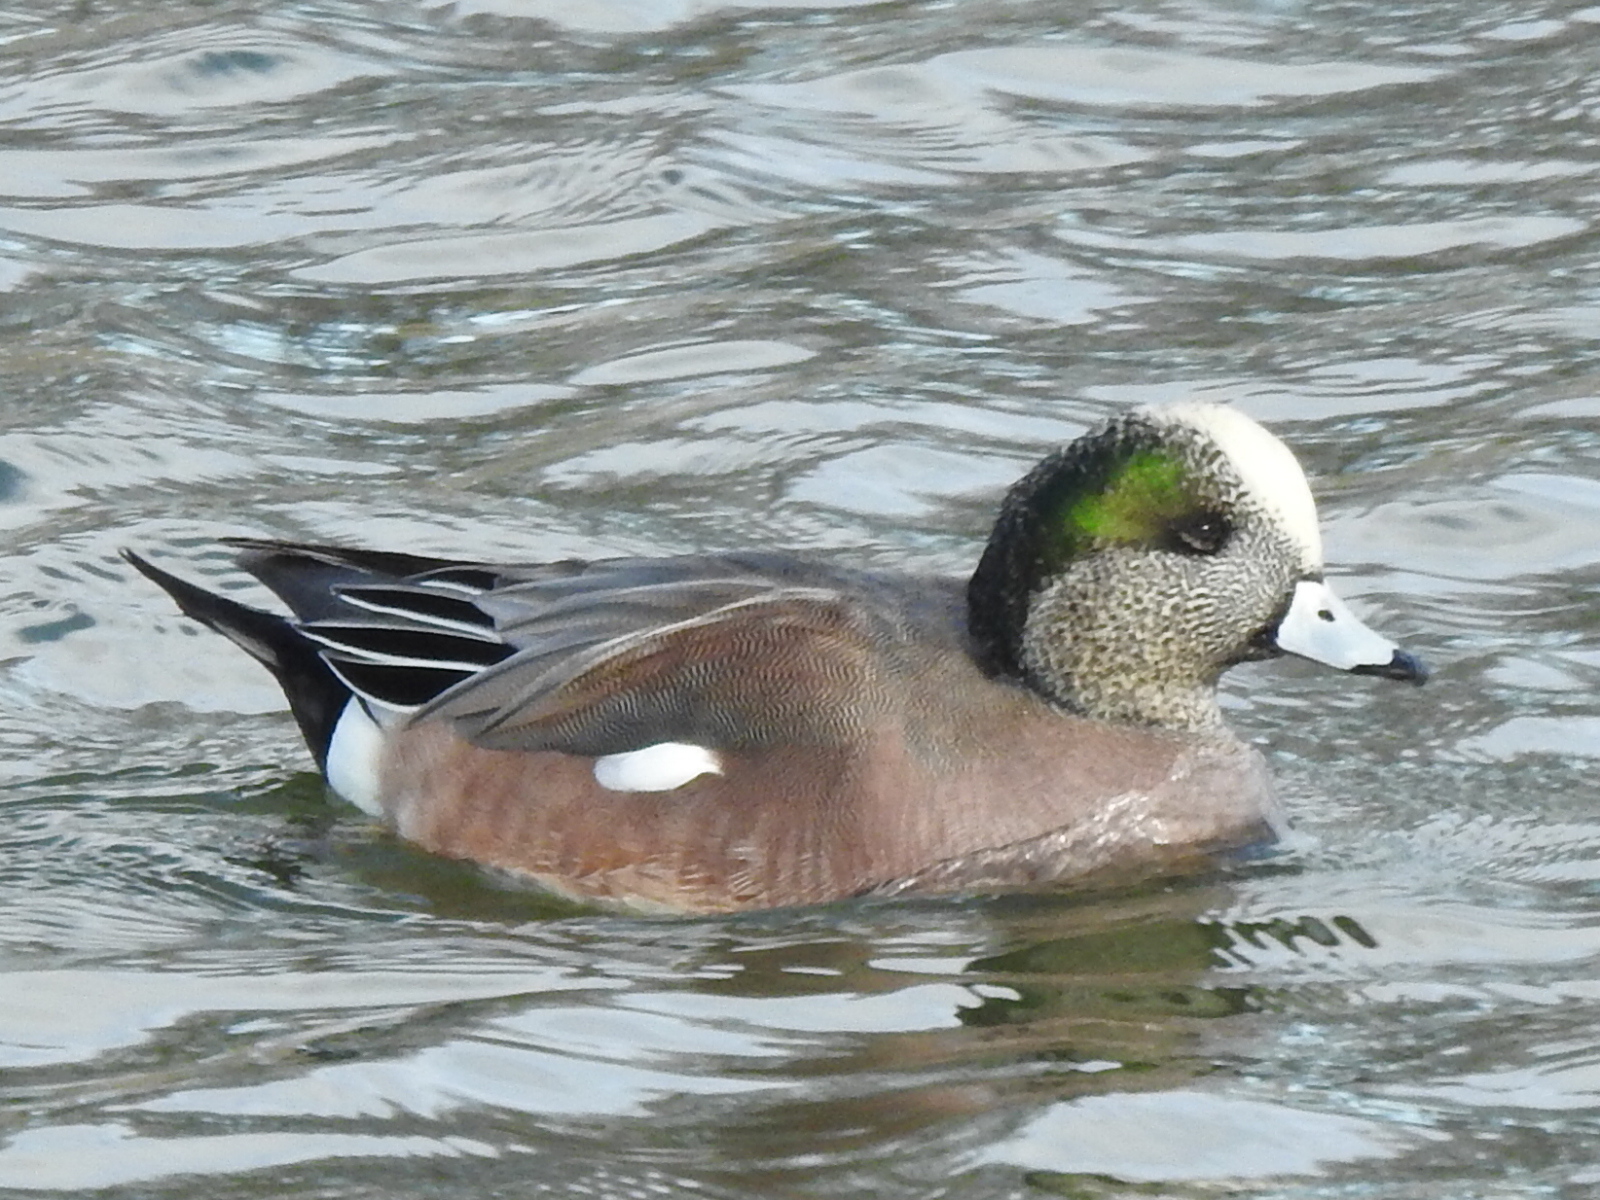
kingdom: Animalia
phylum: Chordata
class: Aves
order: Anseriformes
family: Anatidae
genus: Mareca
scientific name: Mareca americana
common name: American wigeon
